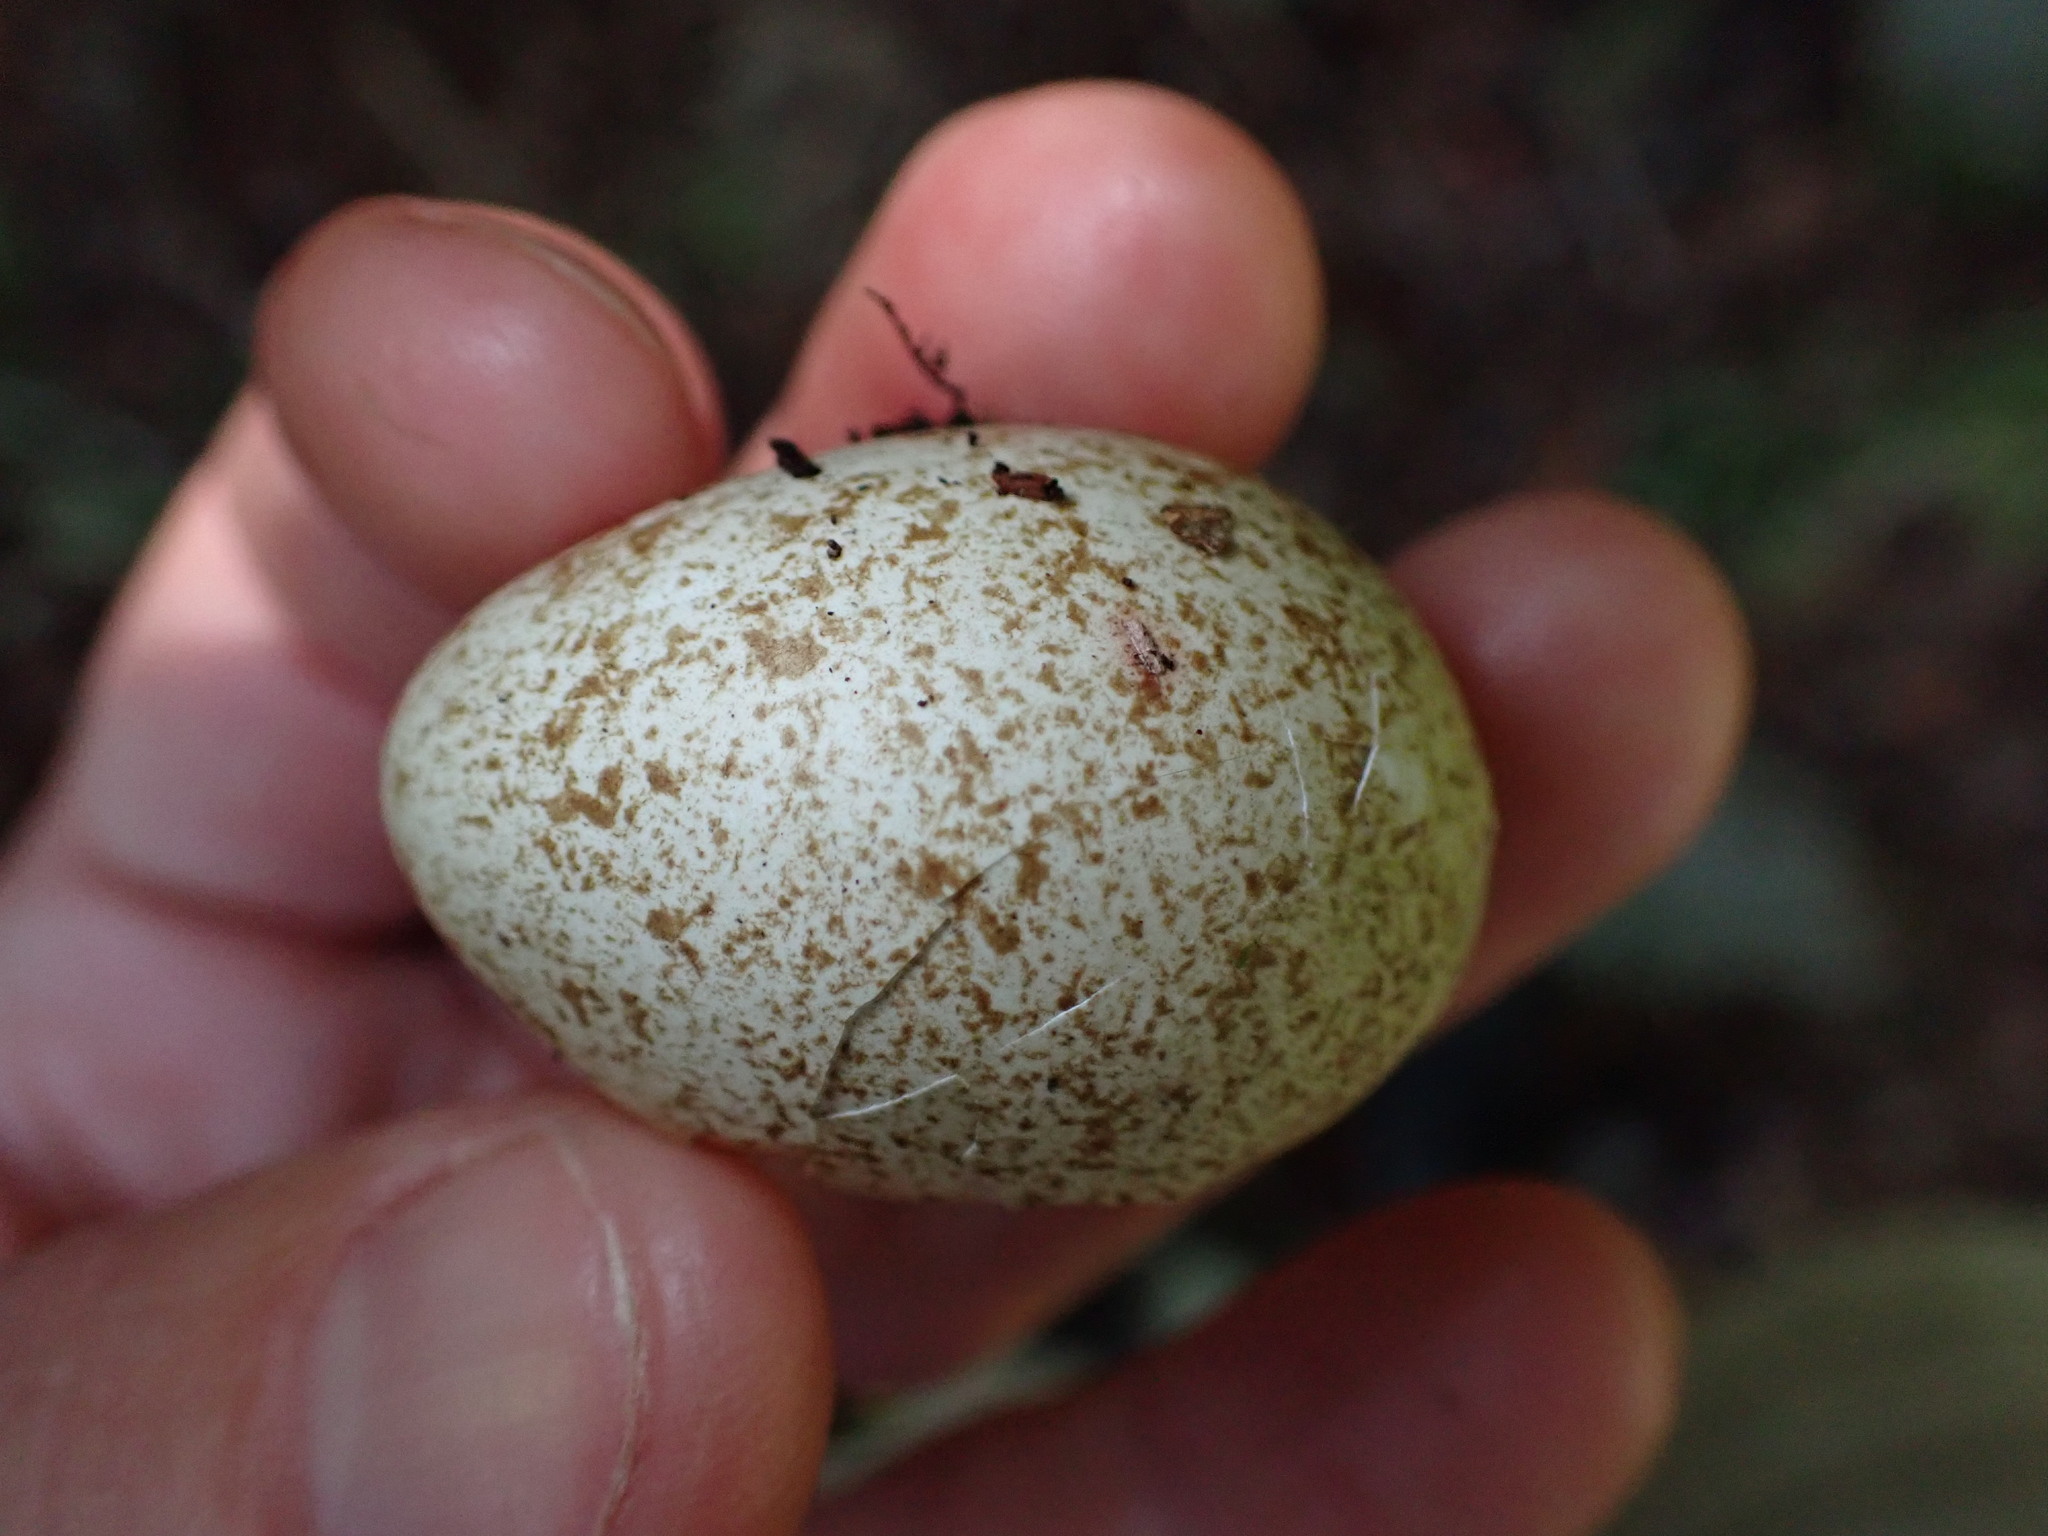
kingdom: Animalia
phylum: Chordata
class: Aves
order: Galliformes
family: Odontophoridae
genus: Callipepla
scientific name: Callipepla californica
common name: California quail
